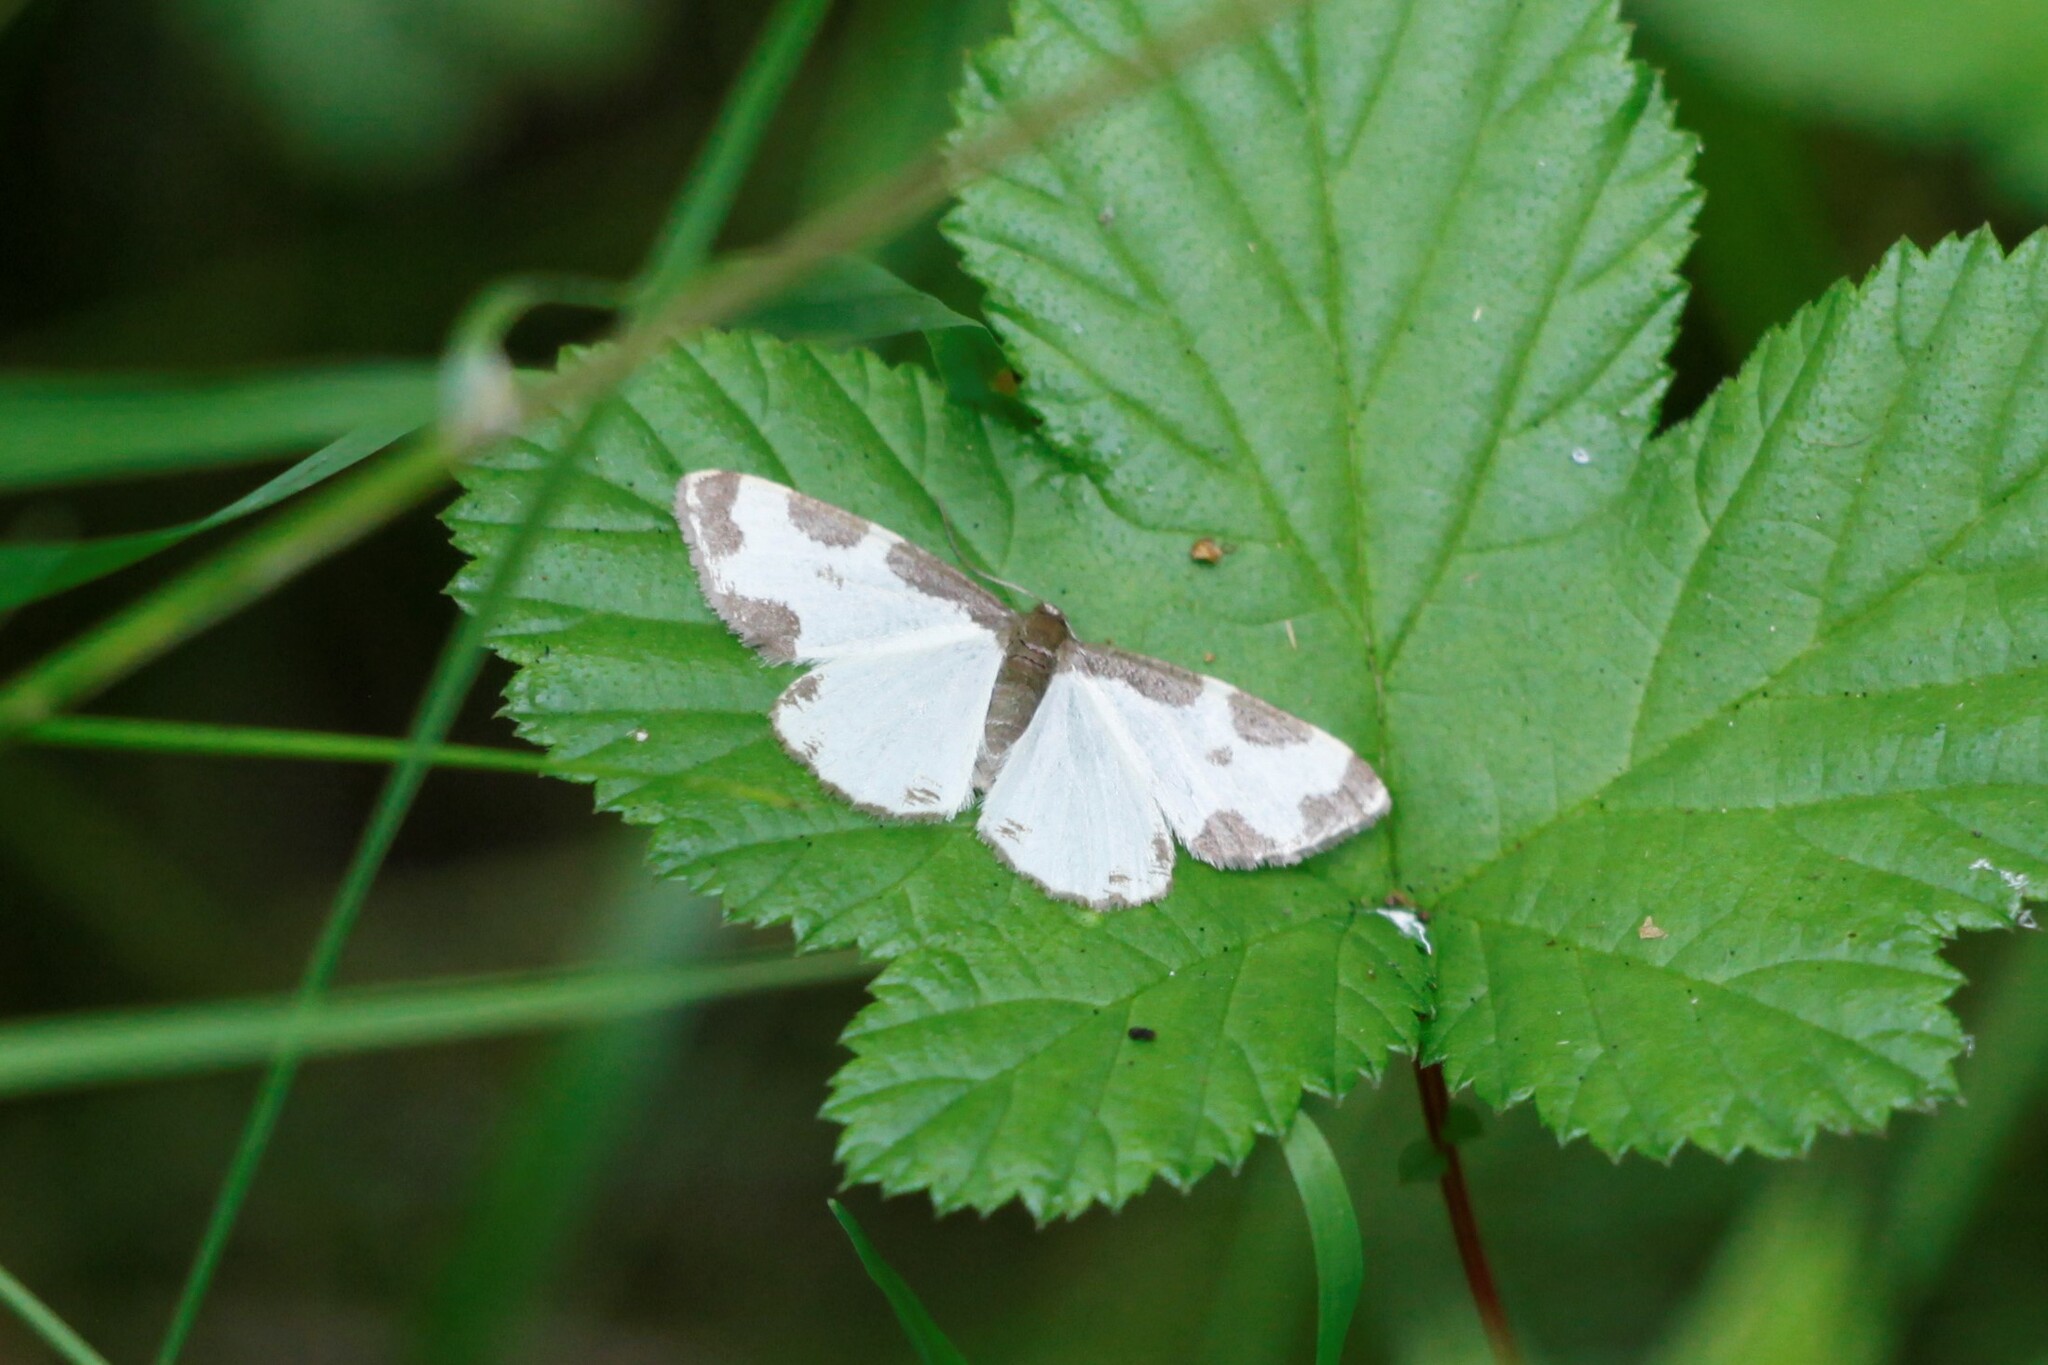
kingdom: Animalia
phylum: Arthropoda
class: Insecta
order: Lepidoptera
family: Geometridae
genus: Lomaspilis
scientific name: Lomaspilis marginata
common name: Clouded border
